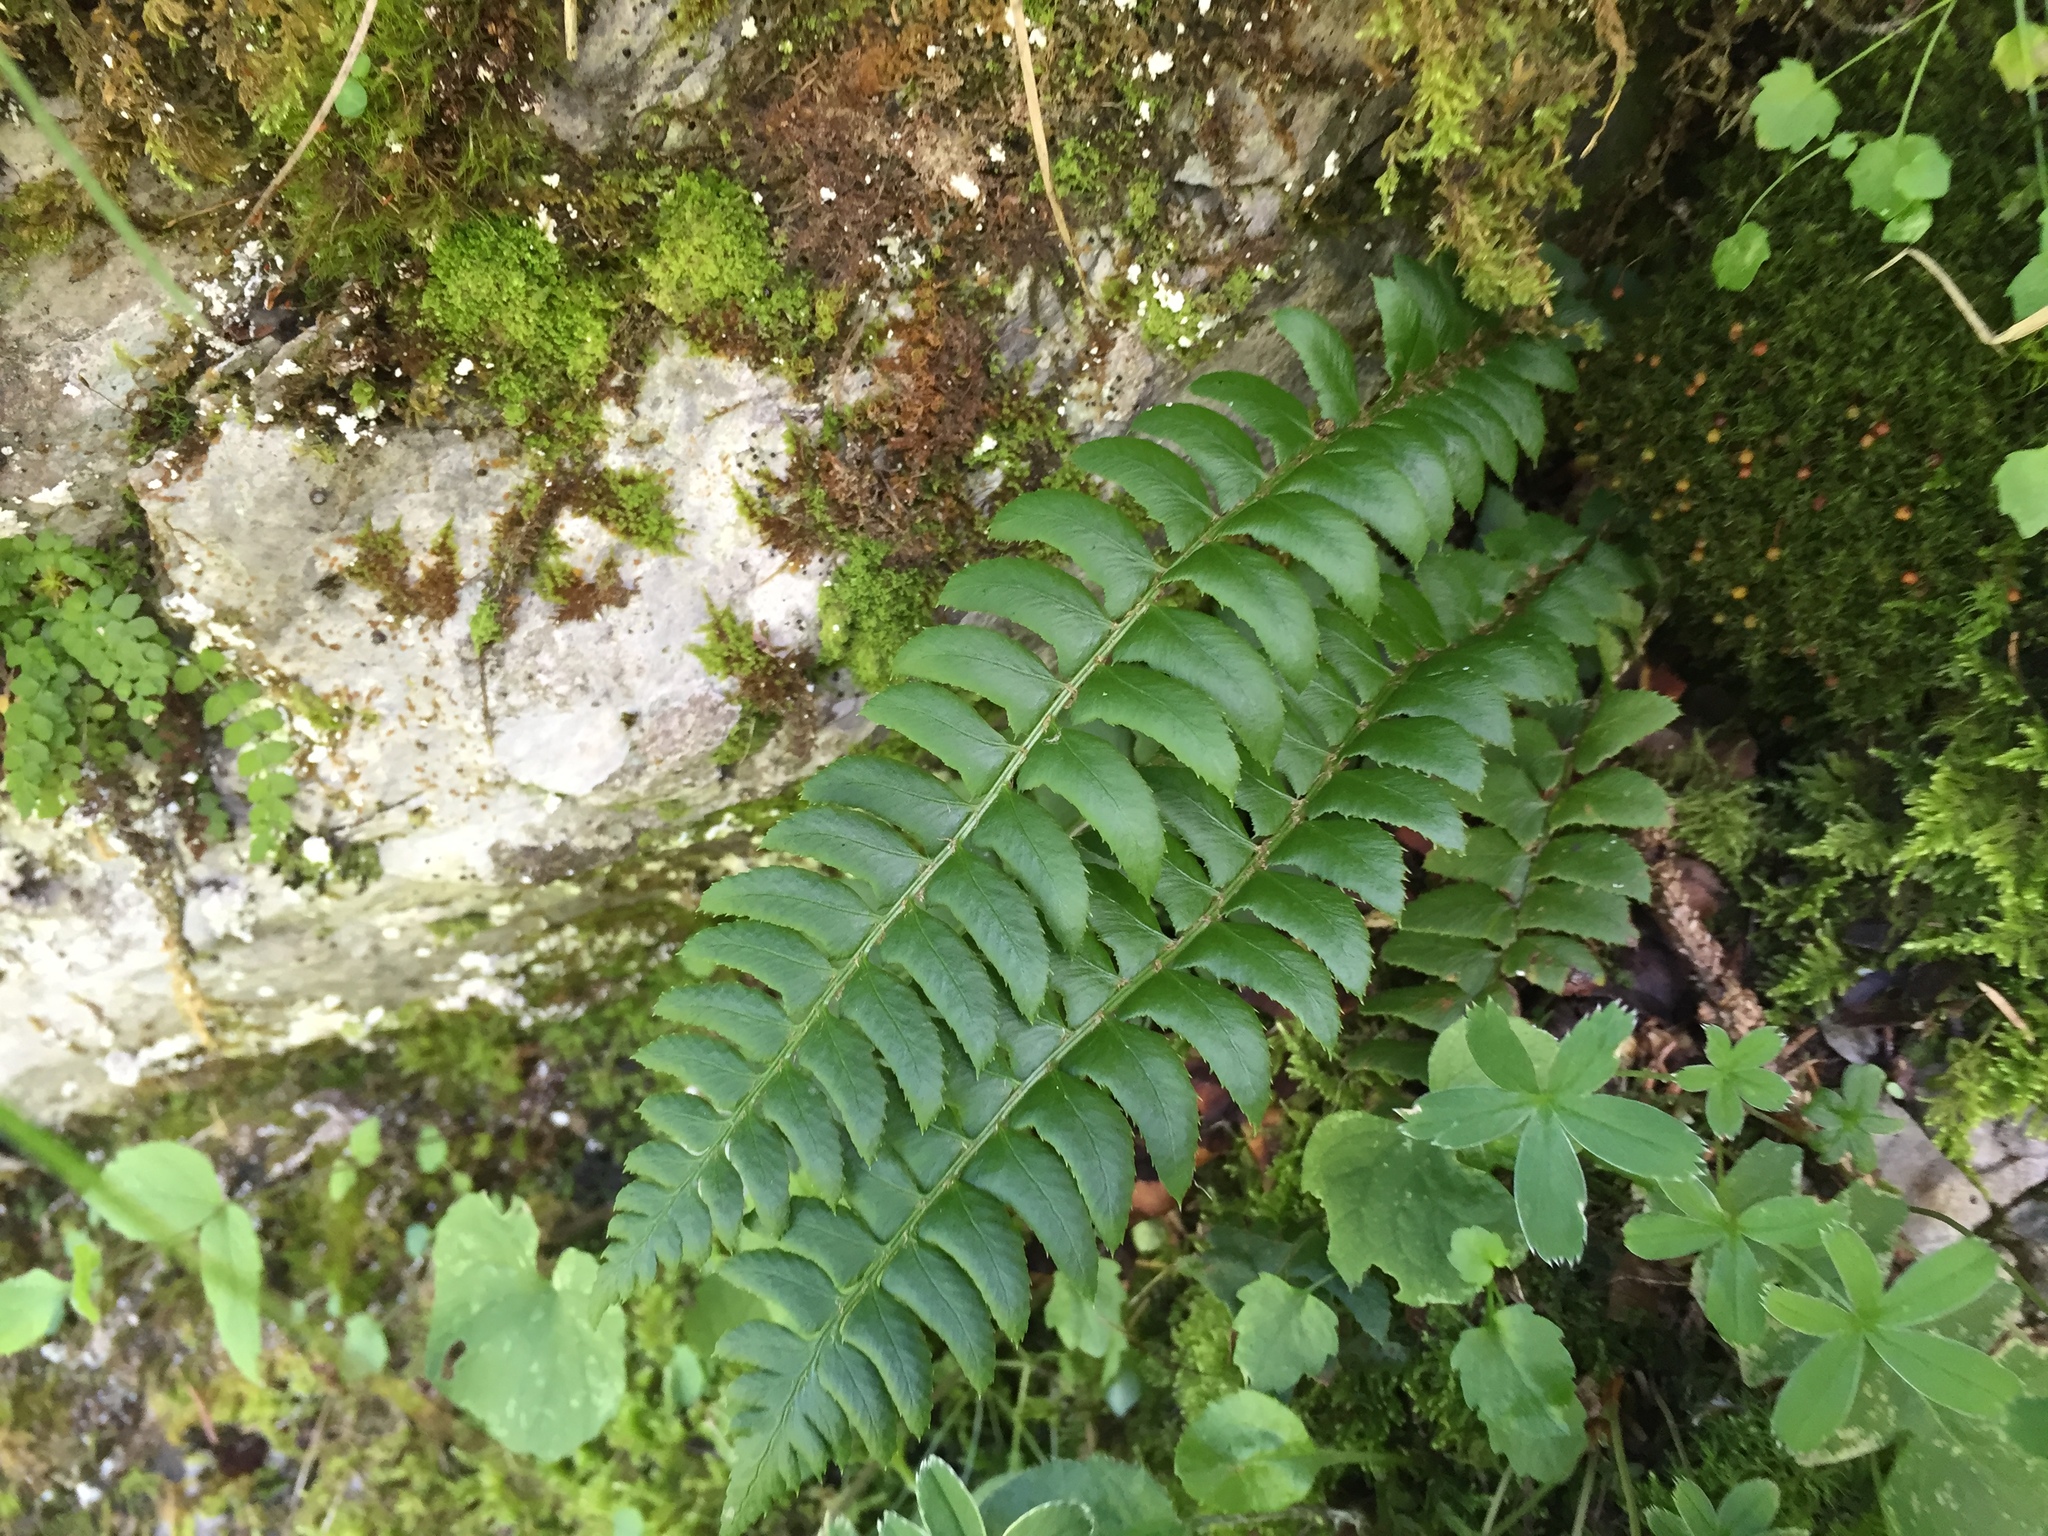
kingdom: Plantae
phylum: Tracheophyta
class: Polypodiopsida
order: Polypodiales
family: Dryopteridaceae
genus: Polystichum
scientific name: Polystichum lonchitis
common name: Holly fern
